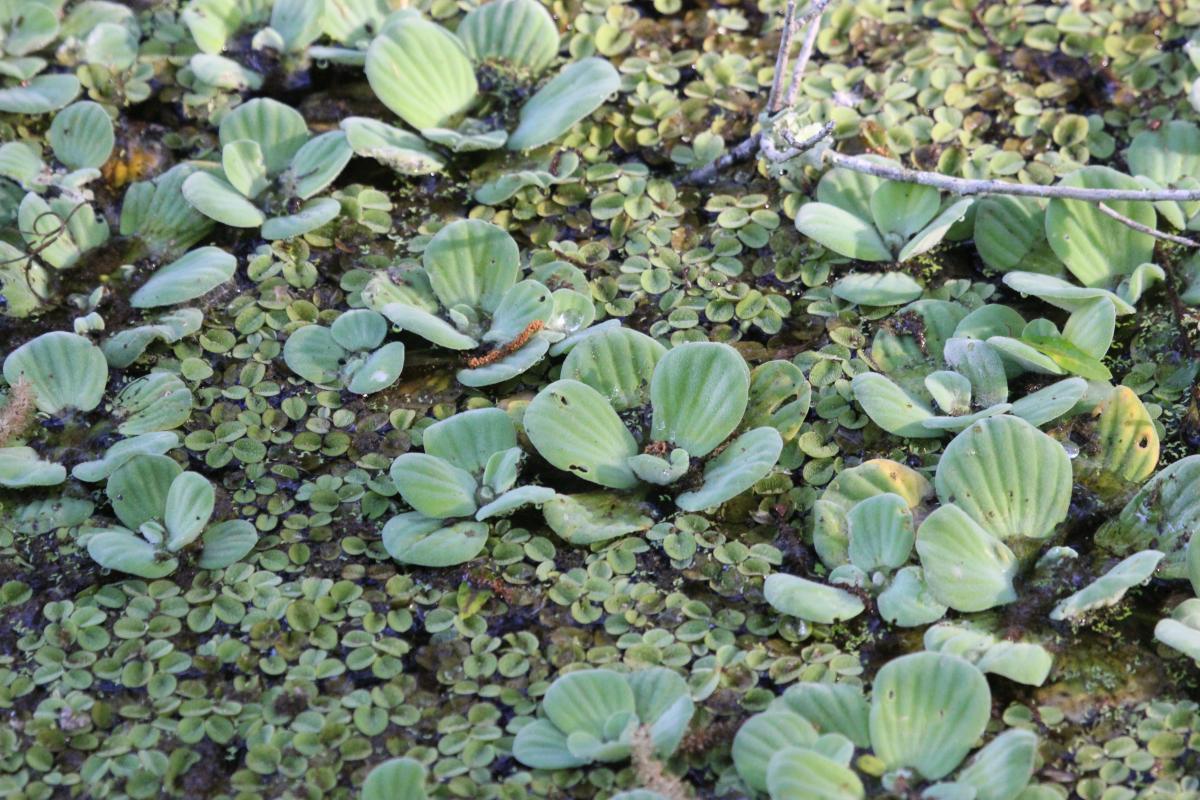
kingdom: Plantae
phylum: Tracheophyta
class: Liliopsida
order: Alismatales
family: Araceae
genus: Pistia
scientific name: Pistia stratiotes
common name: Water lettuce
